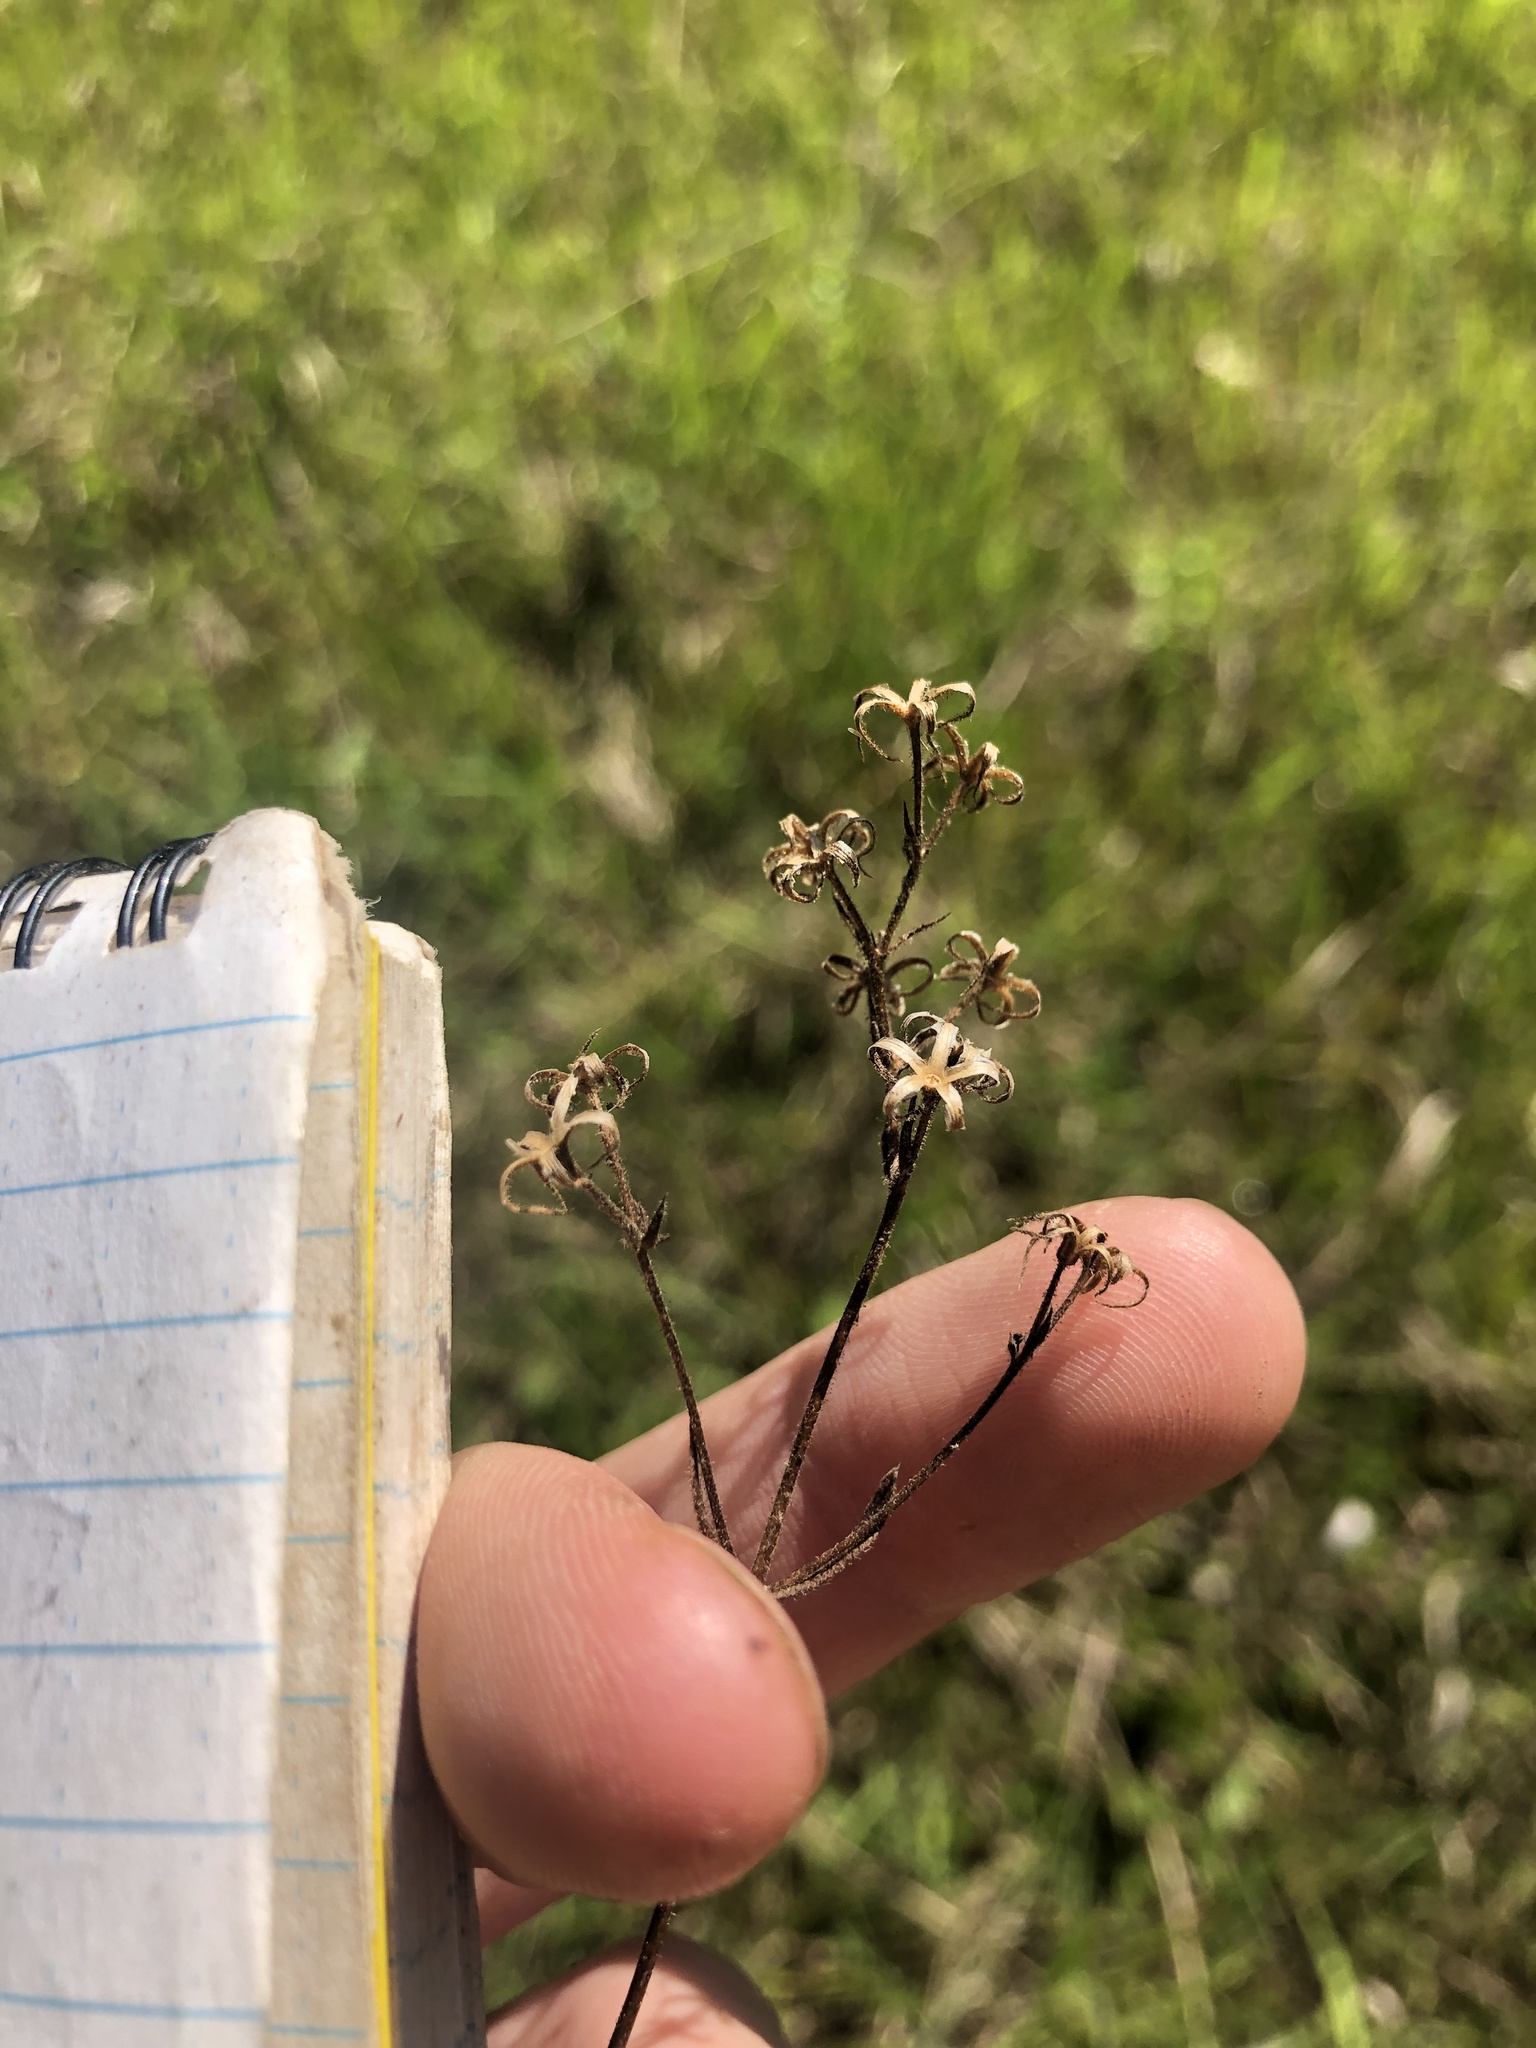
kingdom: Plantae
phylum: Tracheophyta
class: Magnoliopsida
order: Ericales
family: Polemoniaceae
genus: Phlox
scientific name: Phlox pilosa
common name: Prairie phlox
